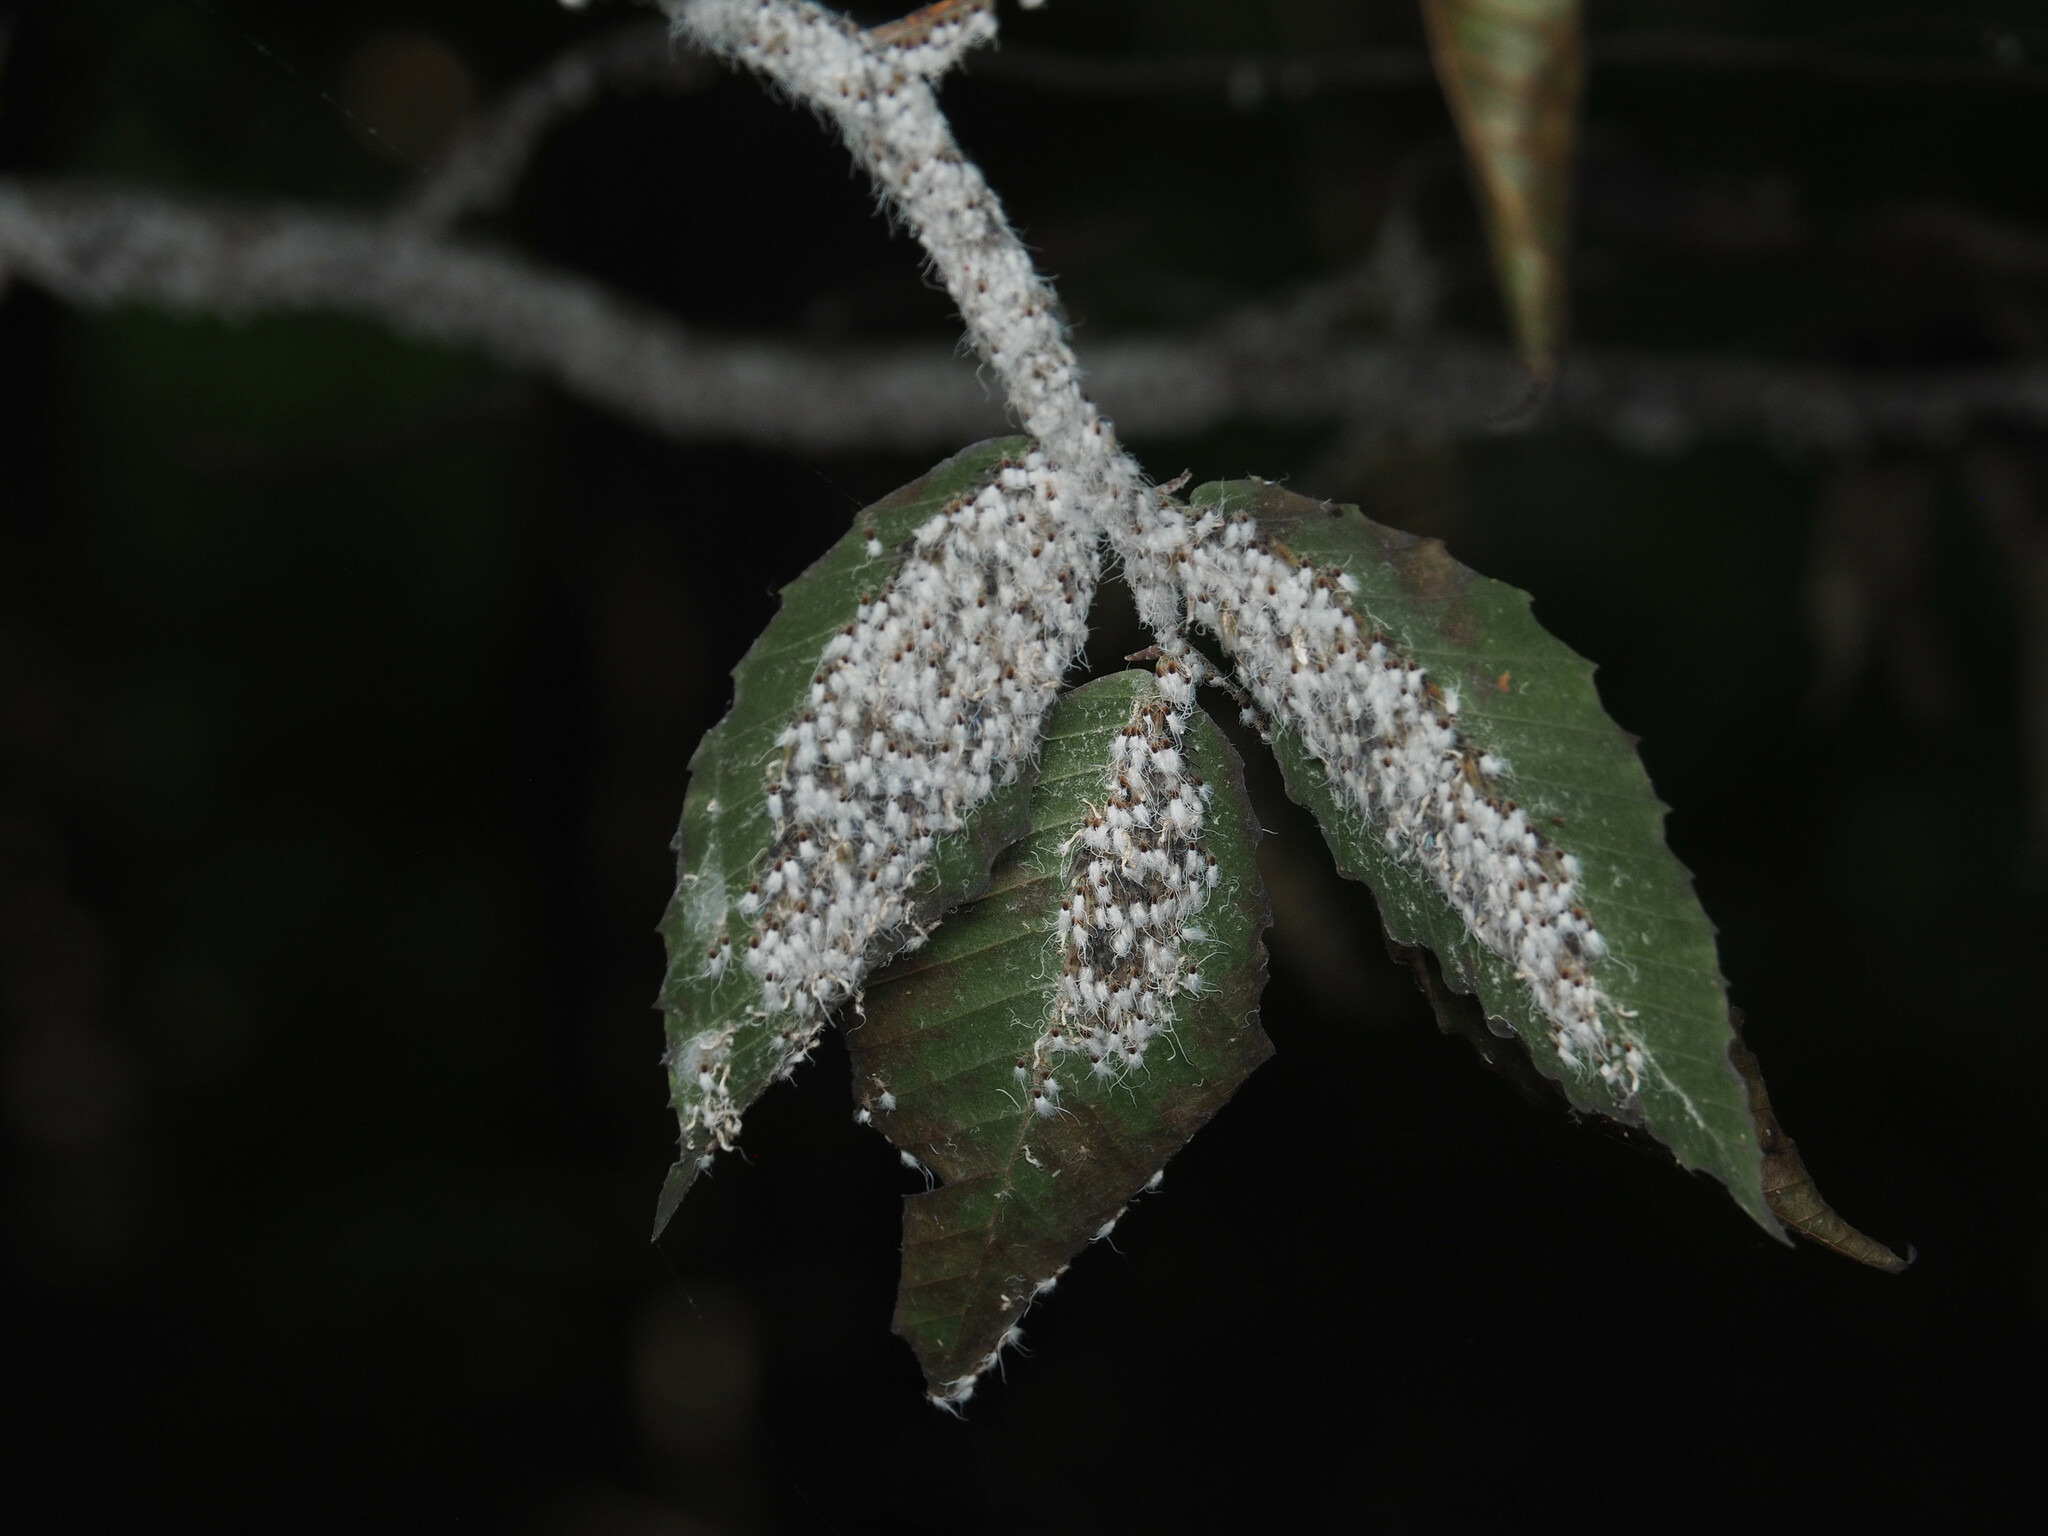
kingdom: Animalia
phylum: Arthropoda
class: Insecta
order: Hemiptera
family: Aphididae
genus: Grylloprociphilus
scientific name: Grylloprociphilus imbricator
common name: Beech blight aphid
